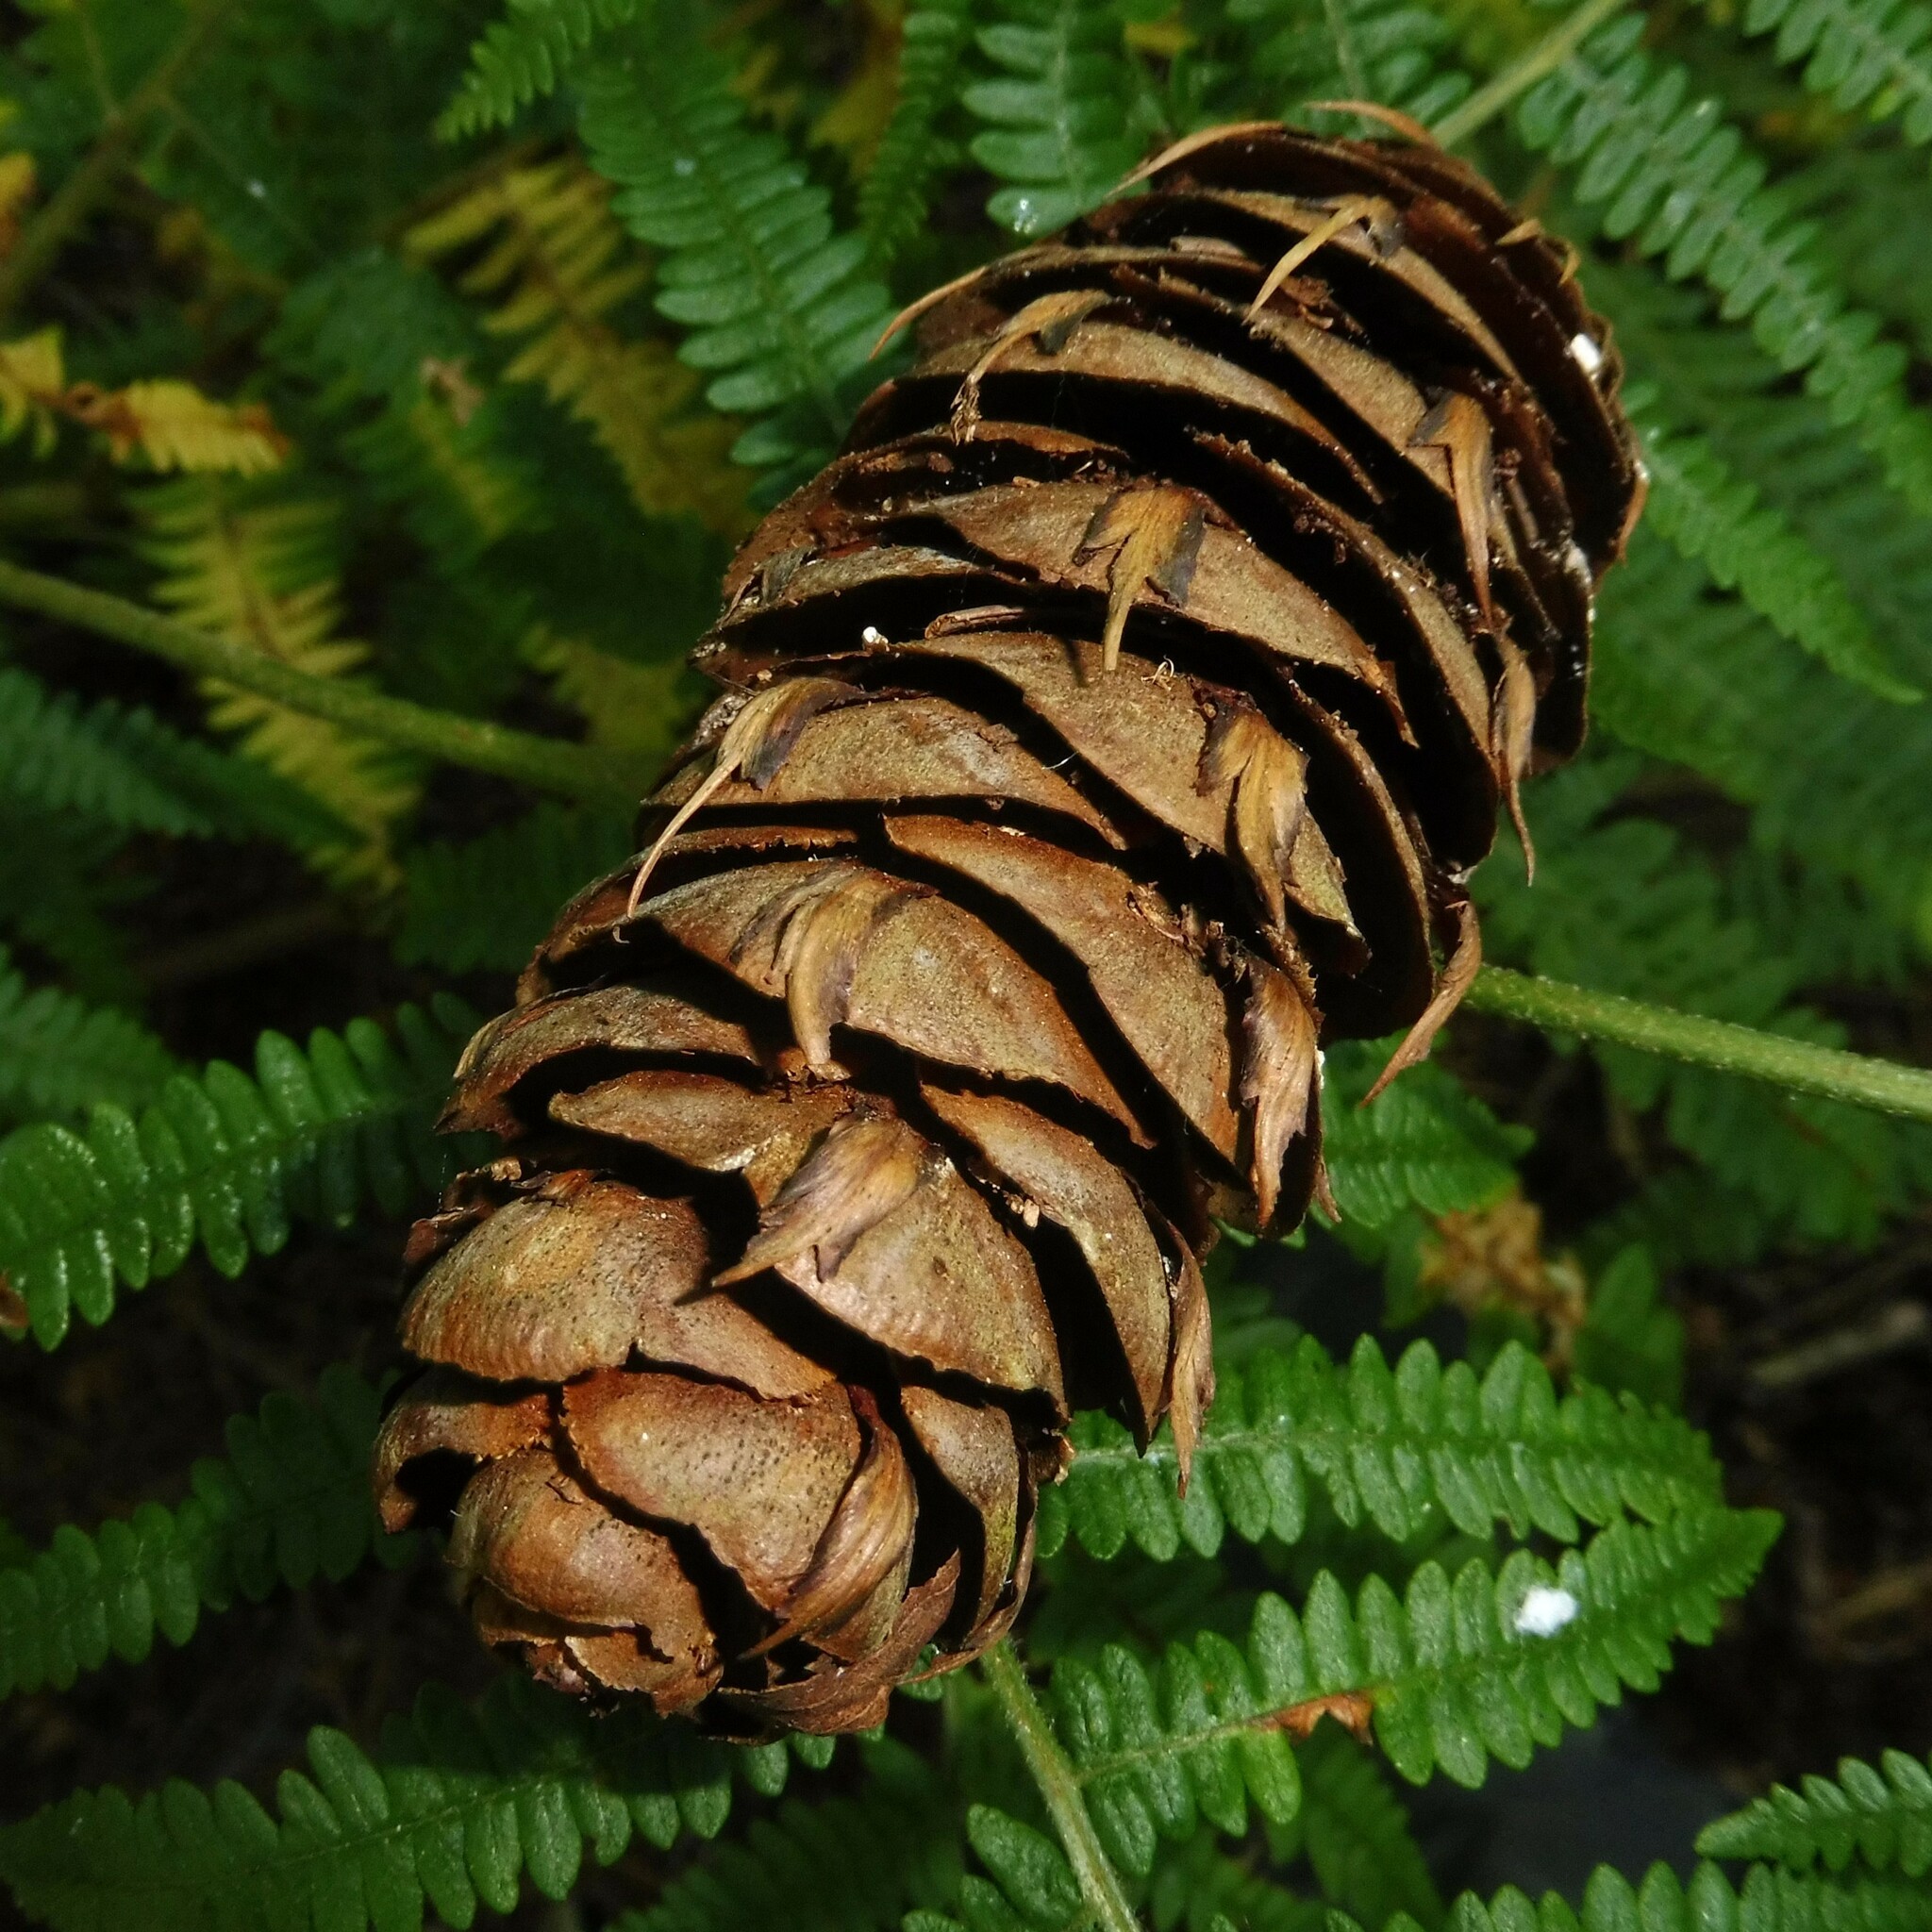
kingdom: Plantae
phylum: Tracheophyta
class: Pinopsida
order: Pinales
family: Pinaceae
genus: Pseudotsuga
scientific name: Pseudotsuga menziesii
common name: Douglas fir
